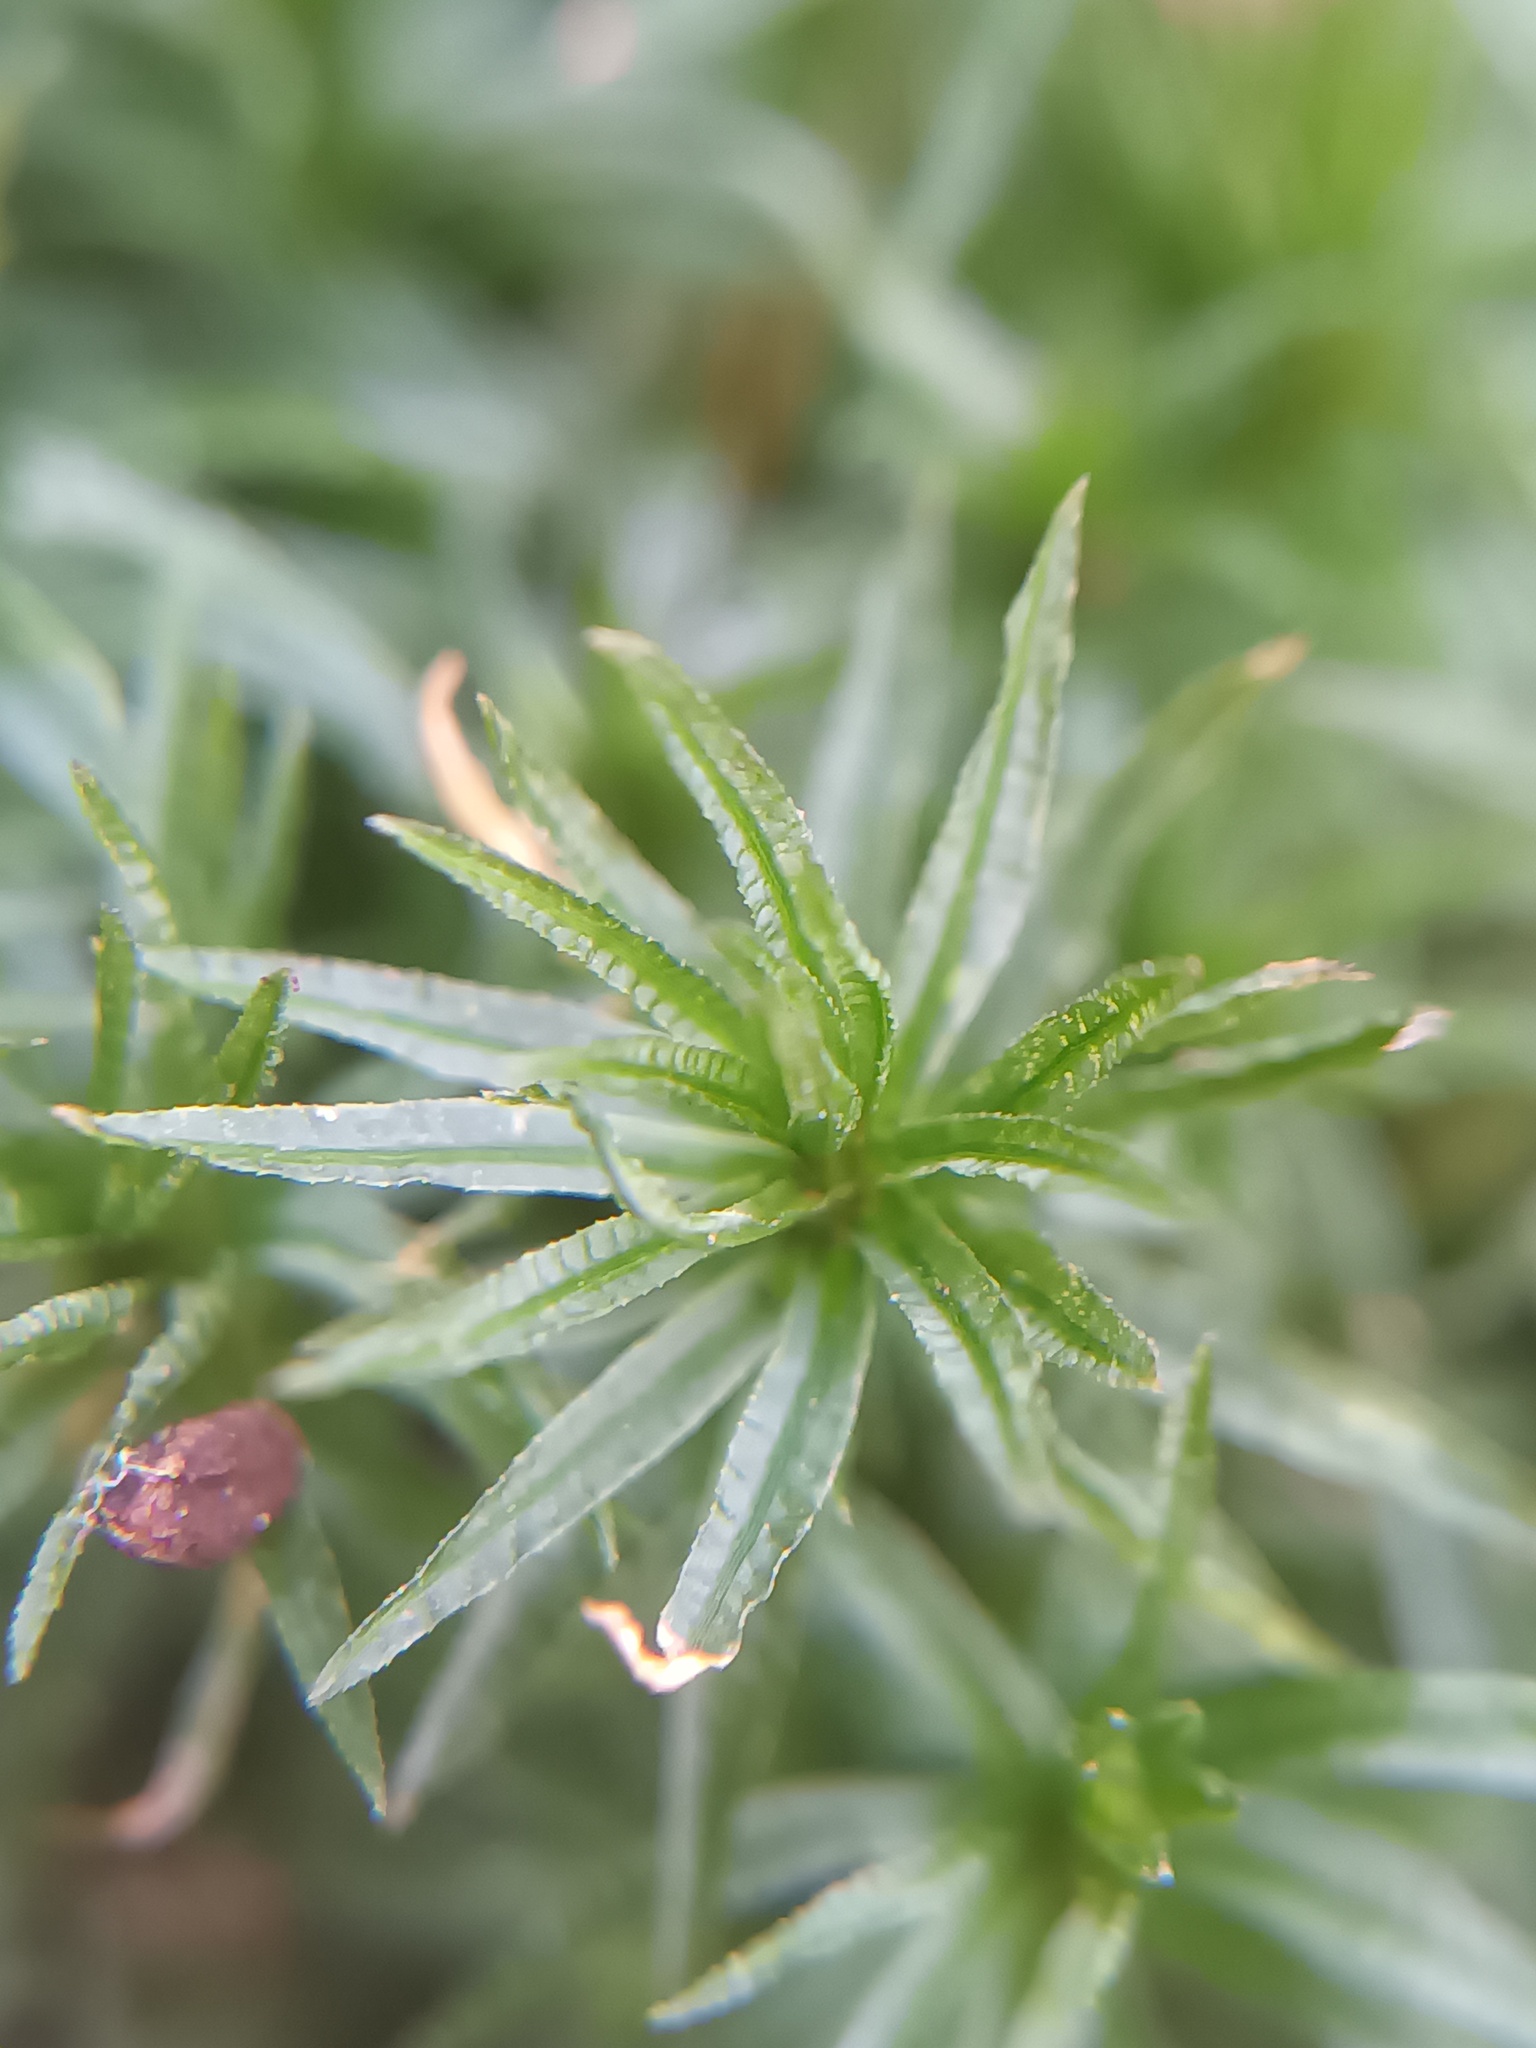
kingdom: Plantae
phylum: Bryophyta
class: Polytrichopsida
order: Polytrichales
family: Polytrichaceae
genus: Atrichum
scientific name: Atrichum undulatum
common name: Common smoothcap
